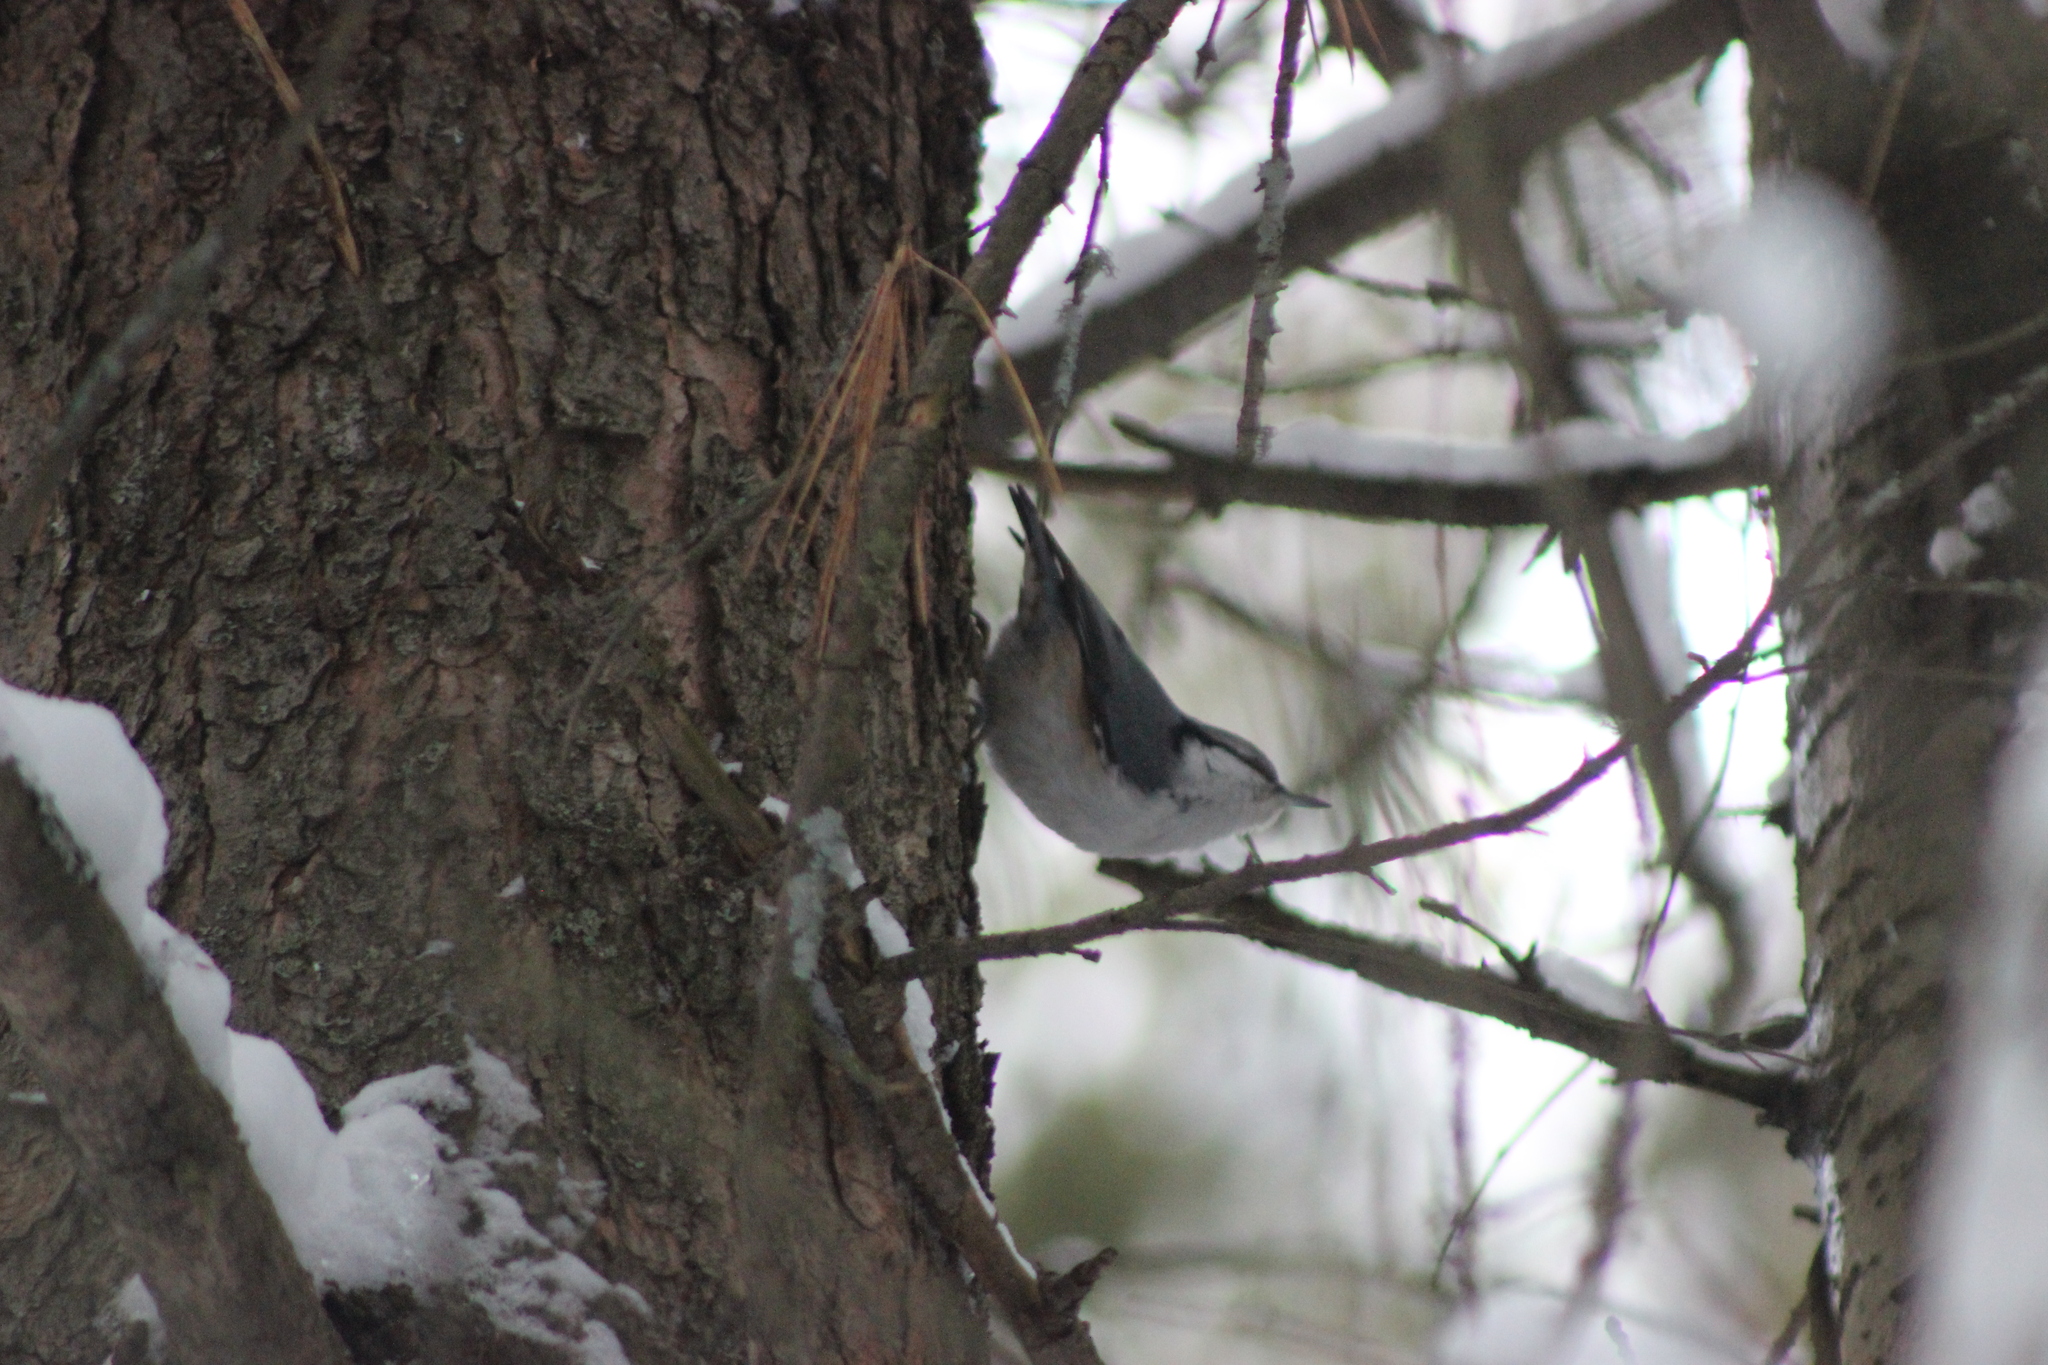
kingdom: Animalia
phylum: Chordata
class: Aves
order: Passeriformes
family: Sittidae
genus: Sitta
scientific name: Sitta europaea
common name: Eurasian nuthatch
